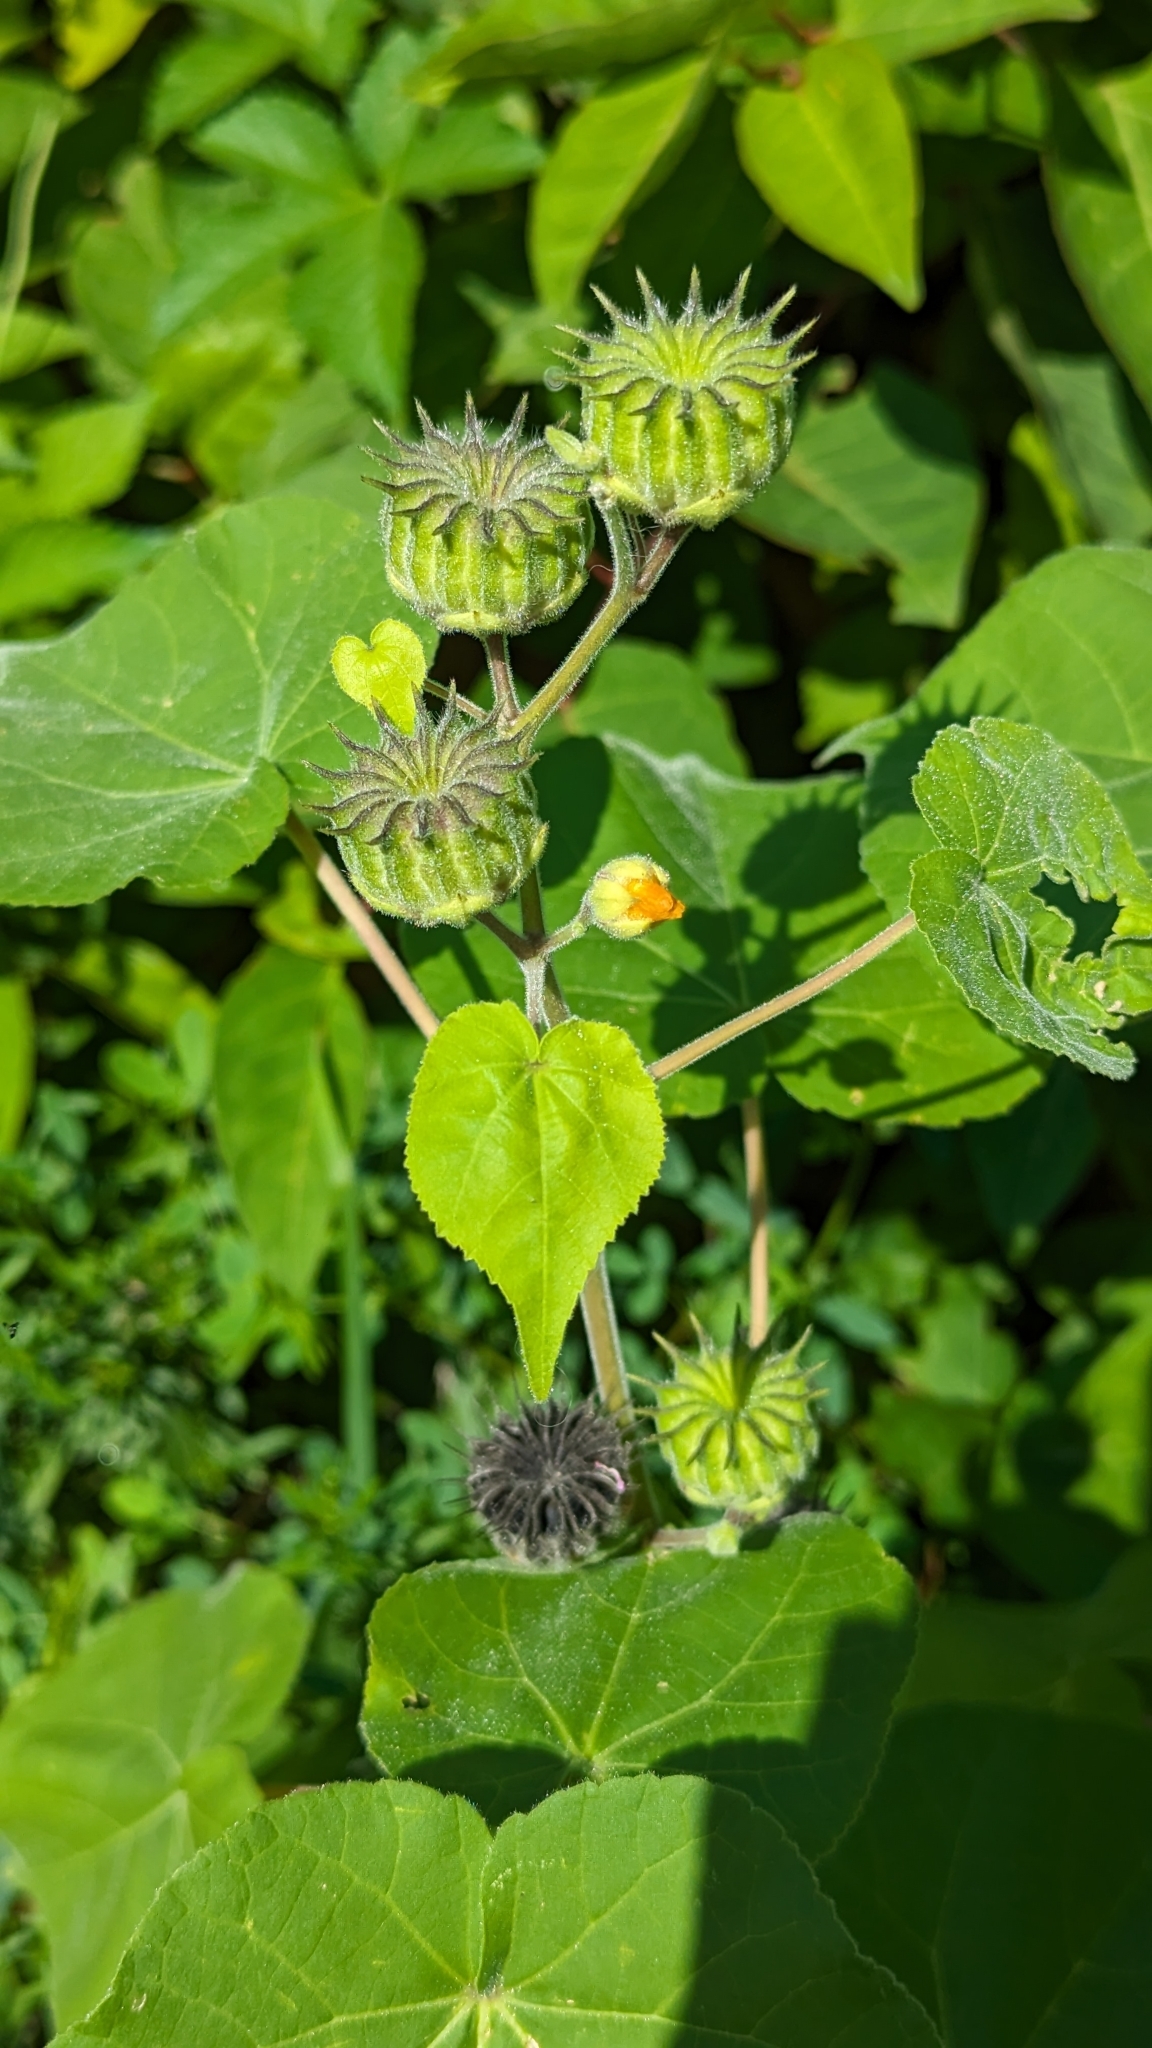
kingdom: Plantae
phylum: Tracheophyta
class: Magnoliopsida
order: Malvales
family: Malvaceae
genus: Abutilon
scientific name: Abutilon theophrasti
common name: Velvetleaf
